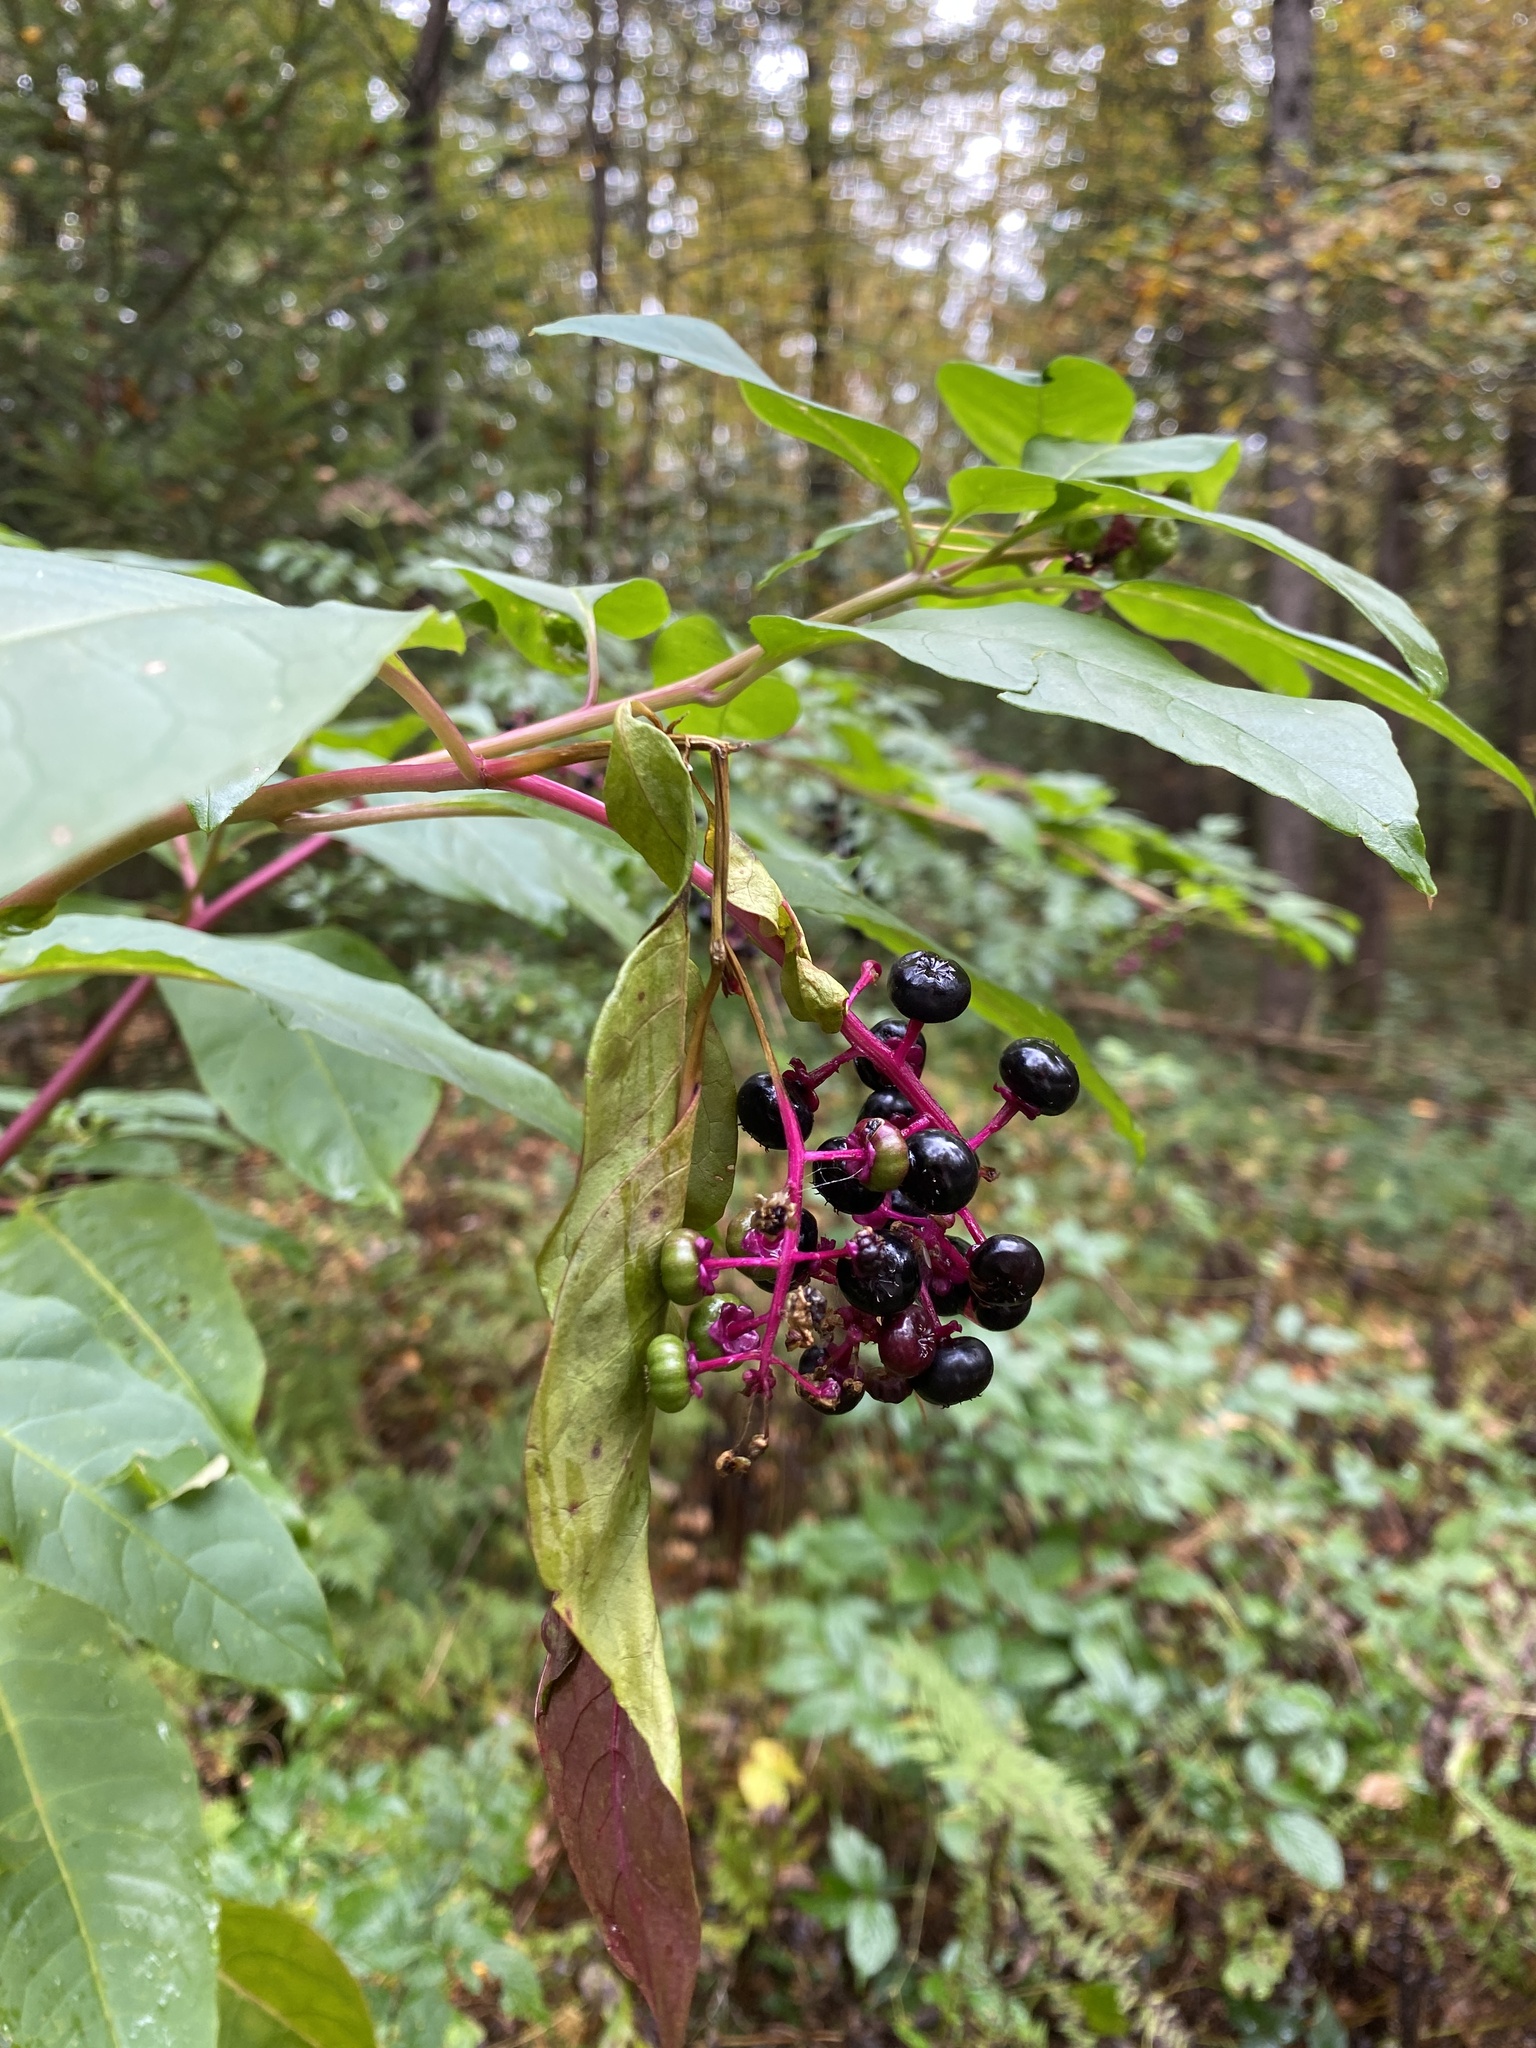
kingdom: Plantae
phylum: Tracheophyta
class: Magnoliopsida
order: Caryophyllales
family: Phytolaccaceae
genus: Phytolacca
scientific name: Phytolacca americana
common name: American pokeweed
